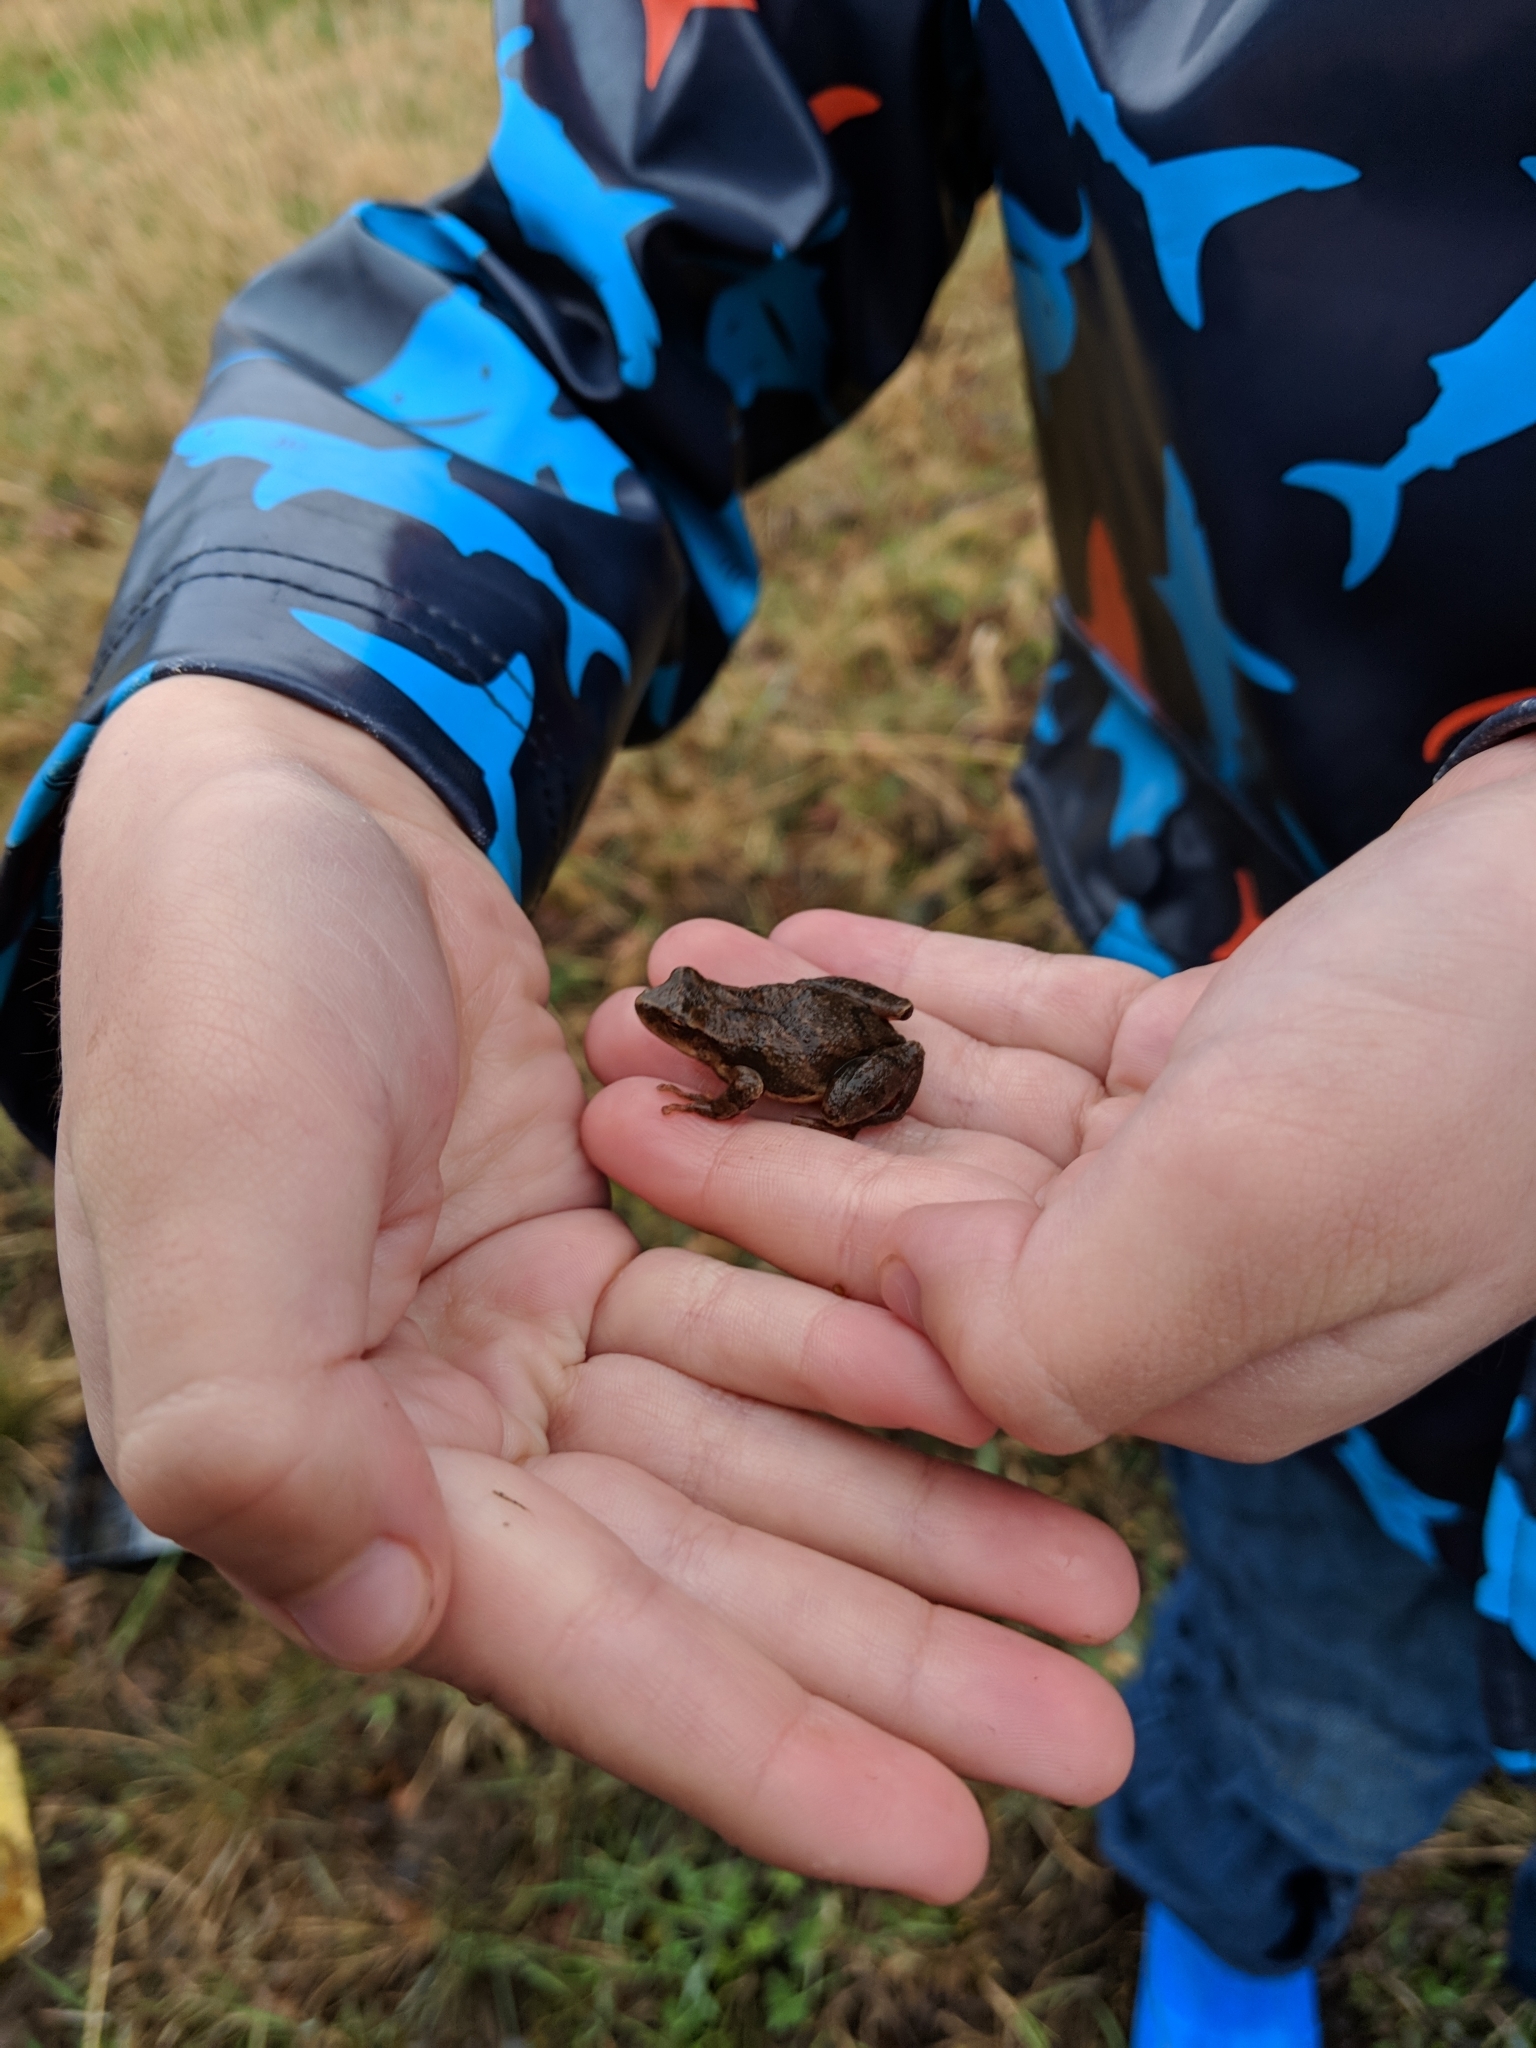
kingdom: Animalia
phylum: Chordata
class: Amphibia
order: Anura
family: Hylidae
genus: Pseudacris
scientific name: Pseudacris crucifer
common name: Spring peeper
